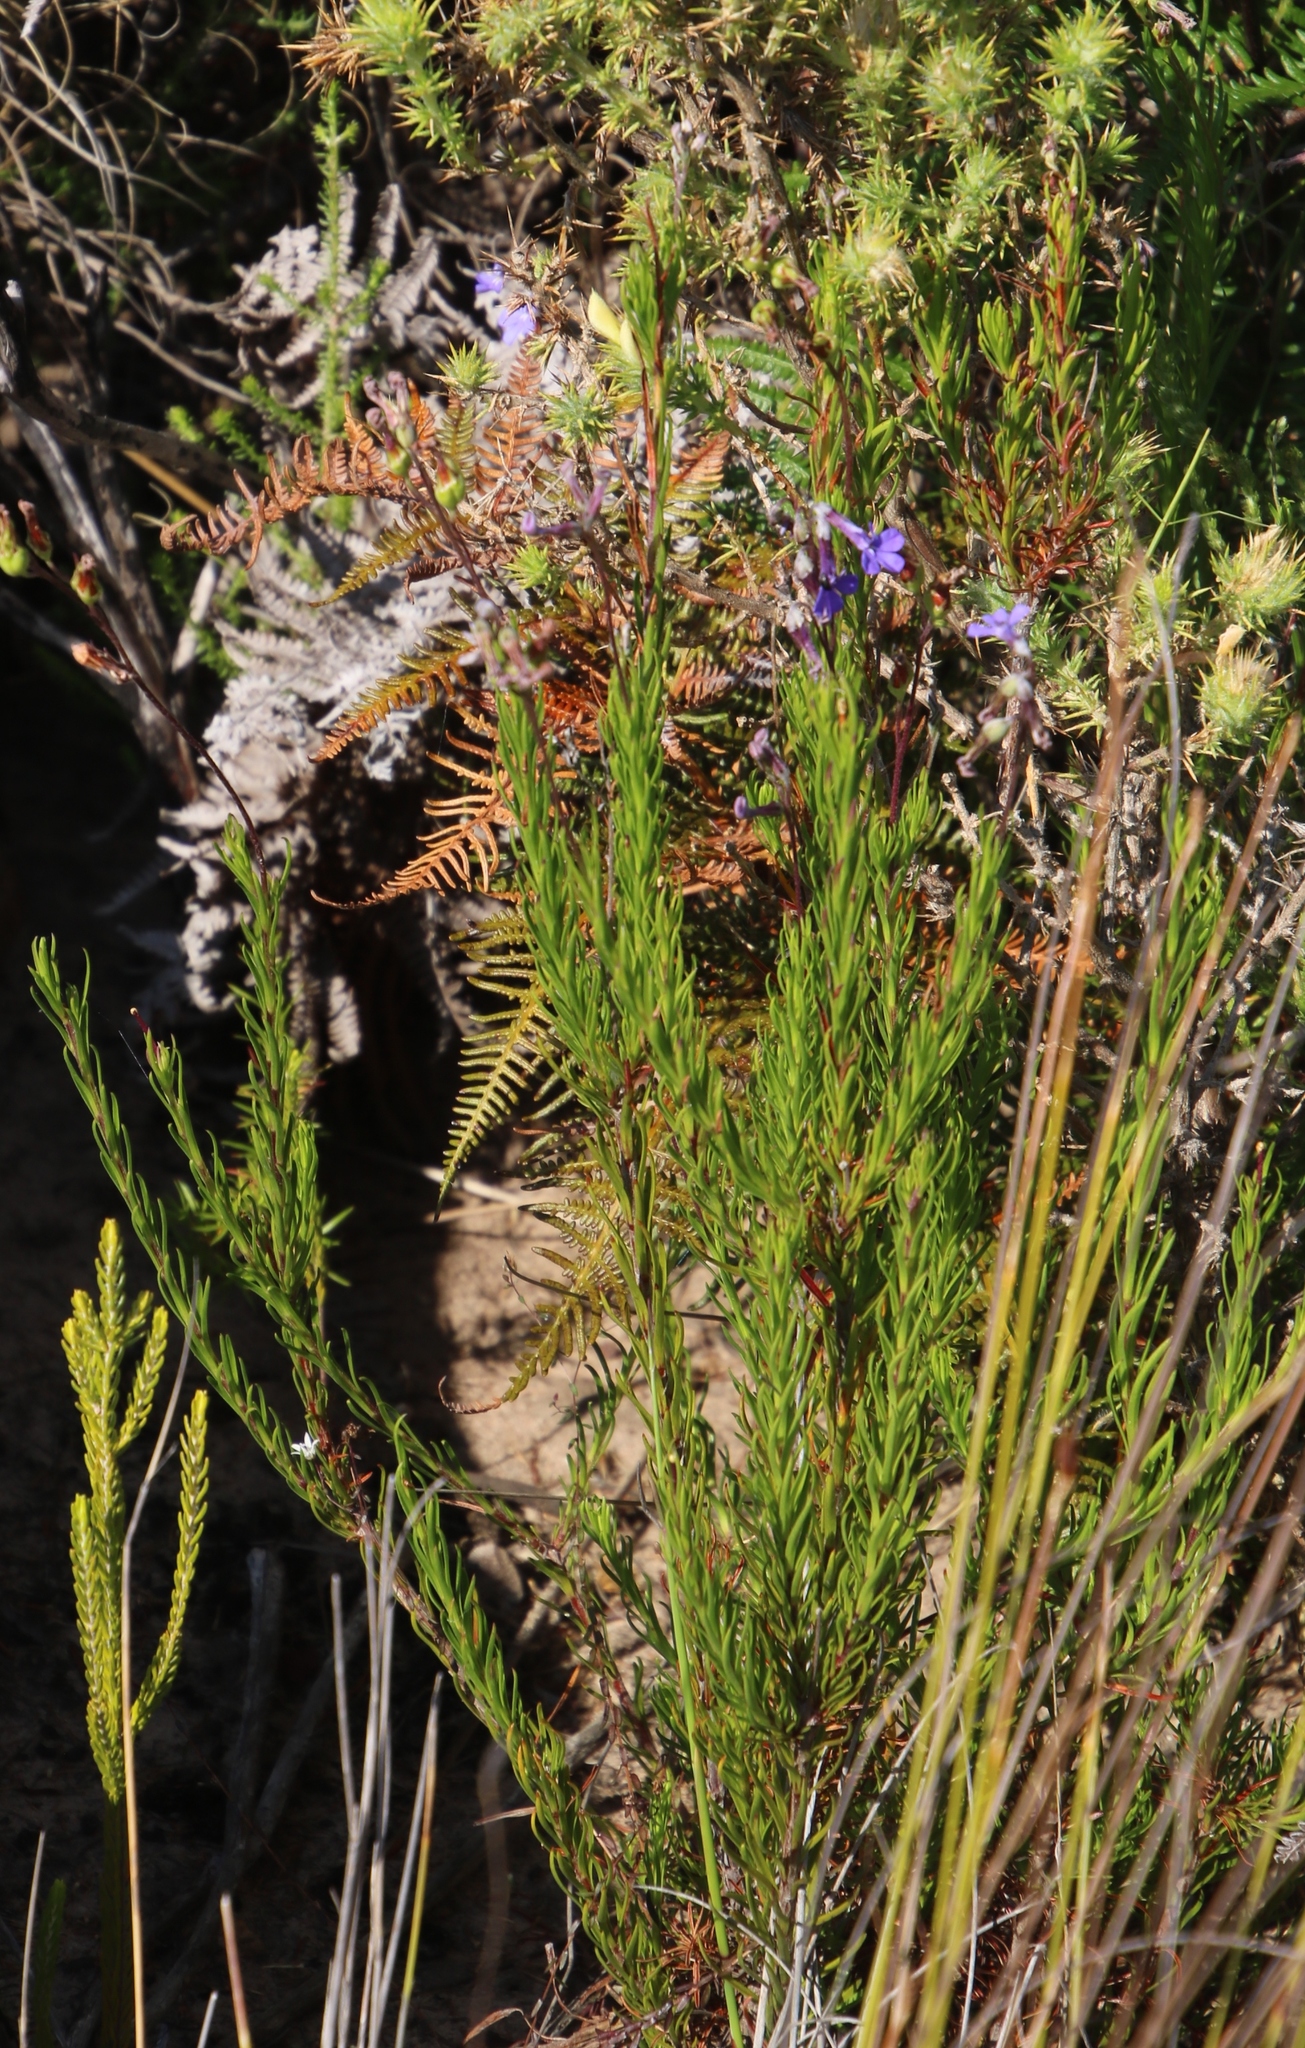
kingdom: Plantae
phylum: Tracheophyta
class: Magnoliopsida
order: Asterales
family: Campanulaceae
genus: Lobelia
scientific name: Lobelia pinifolia
